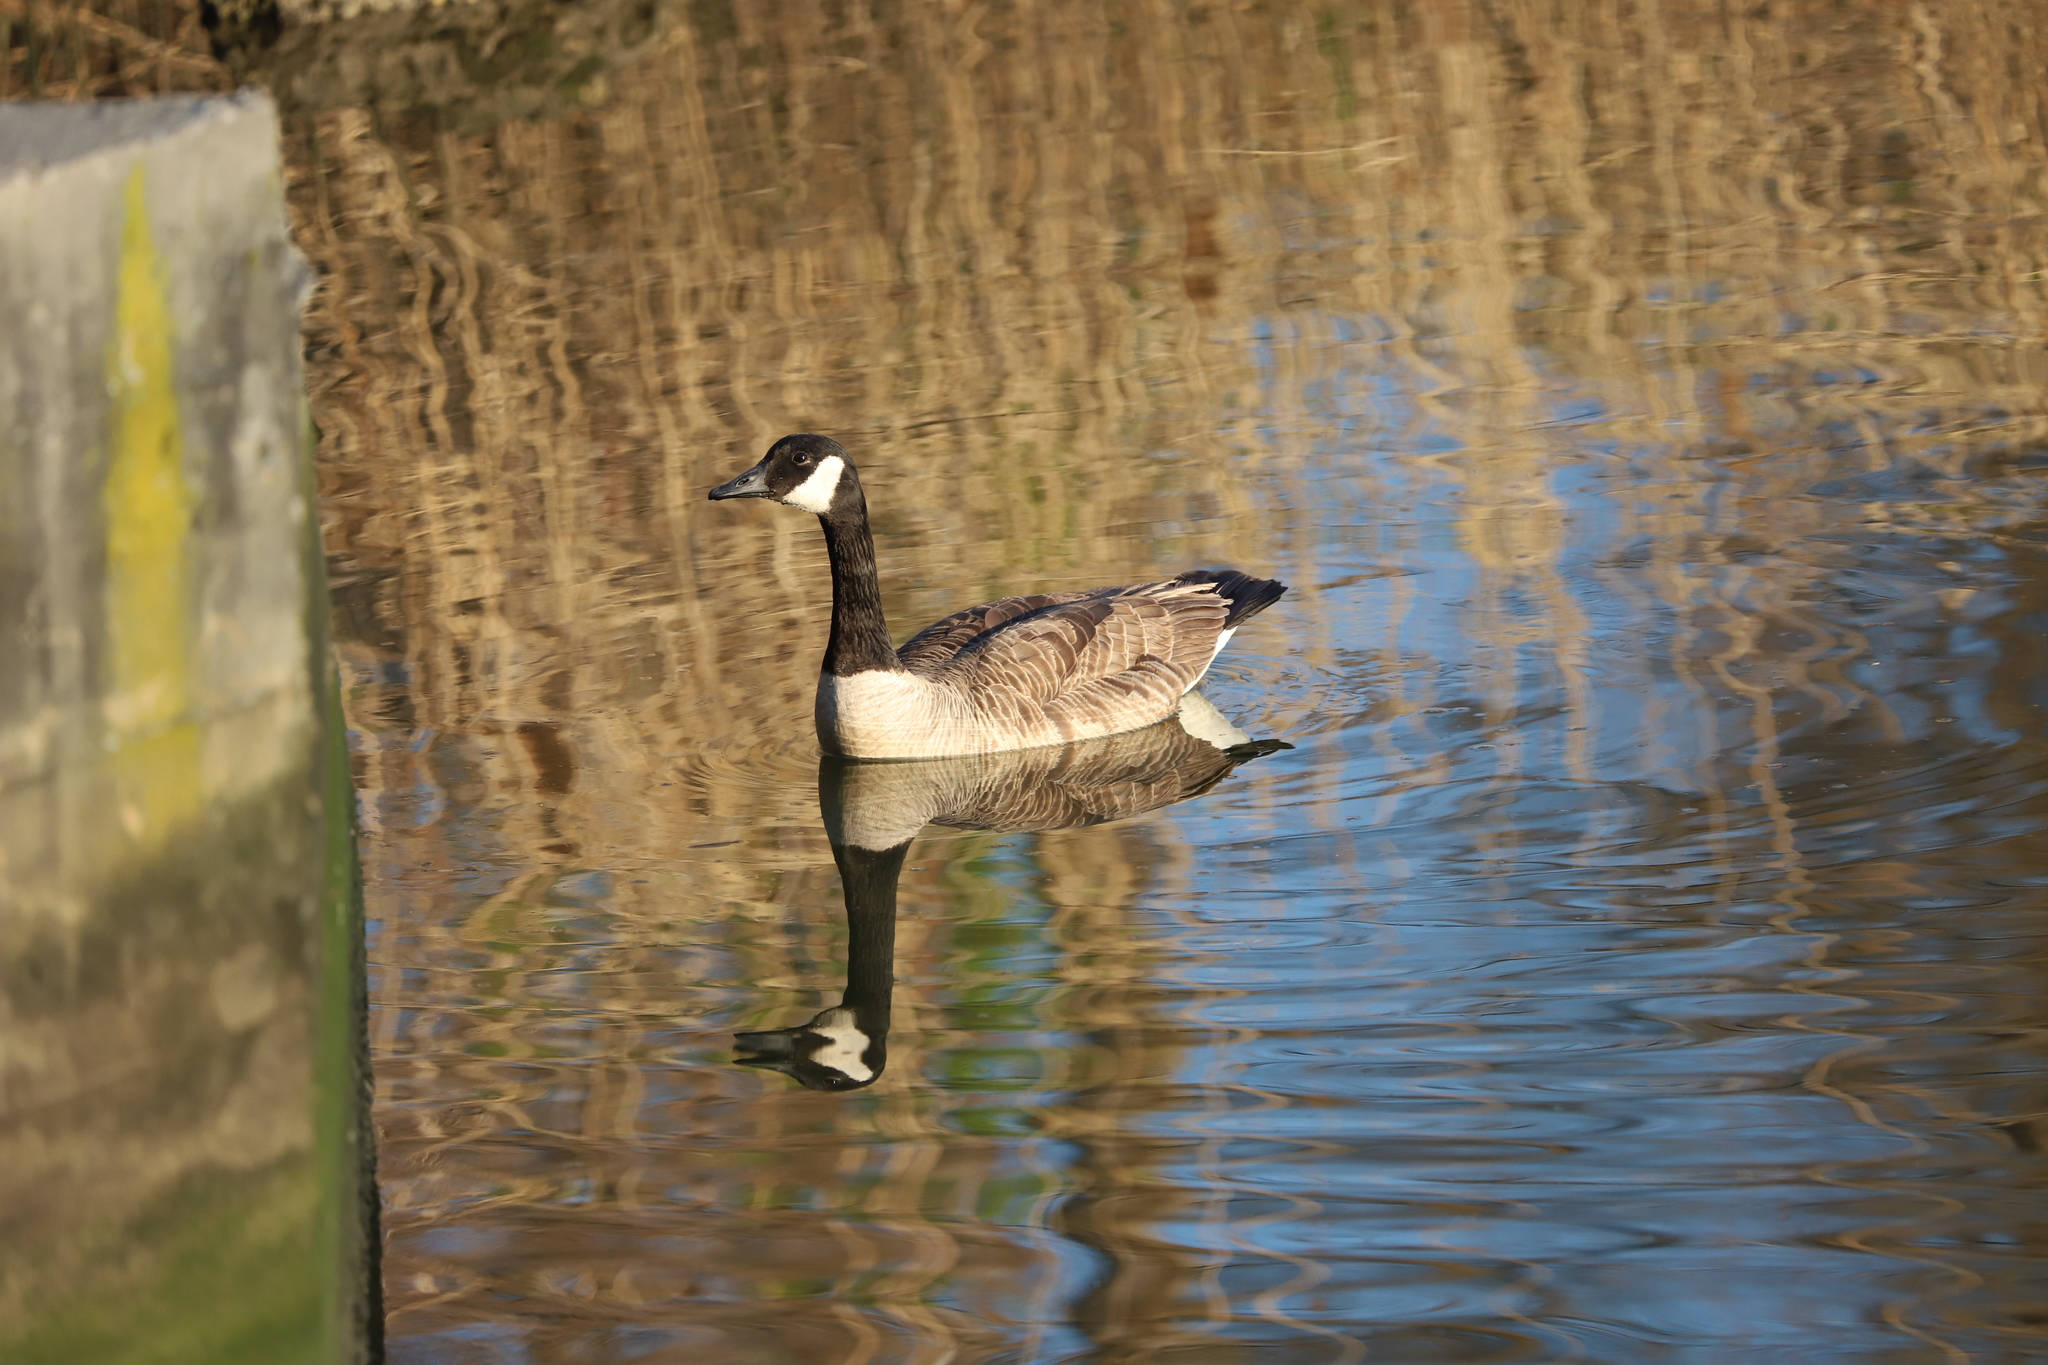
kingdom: Animalia
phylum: Chordata
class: Aves
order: Anseriformes
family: Anatidae
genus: Branta
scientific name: Branta canadensis
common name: Canada goose
